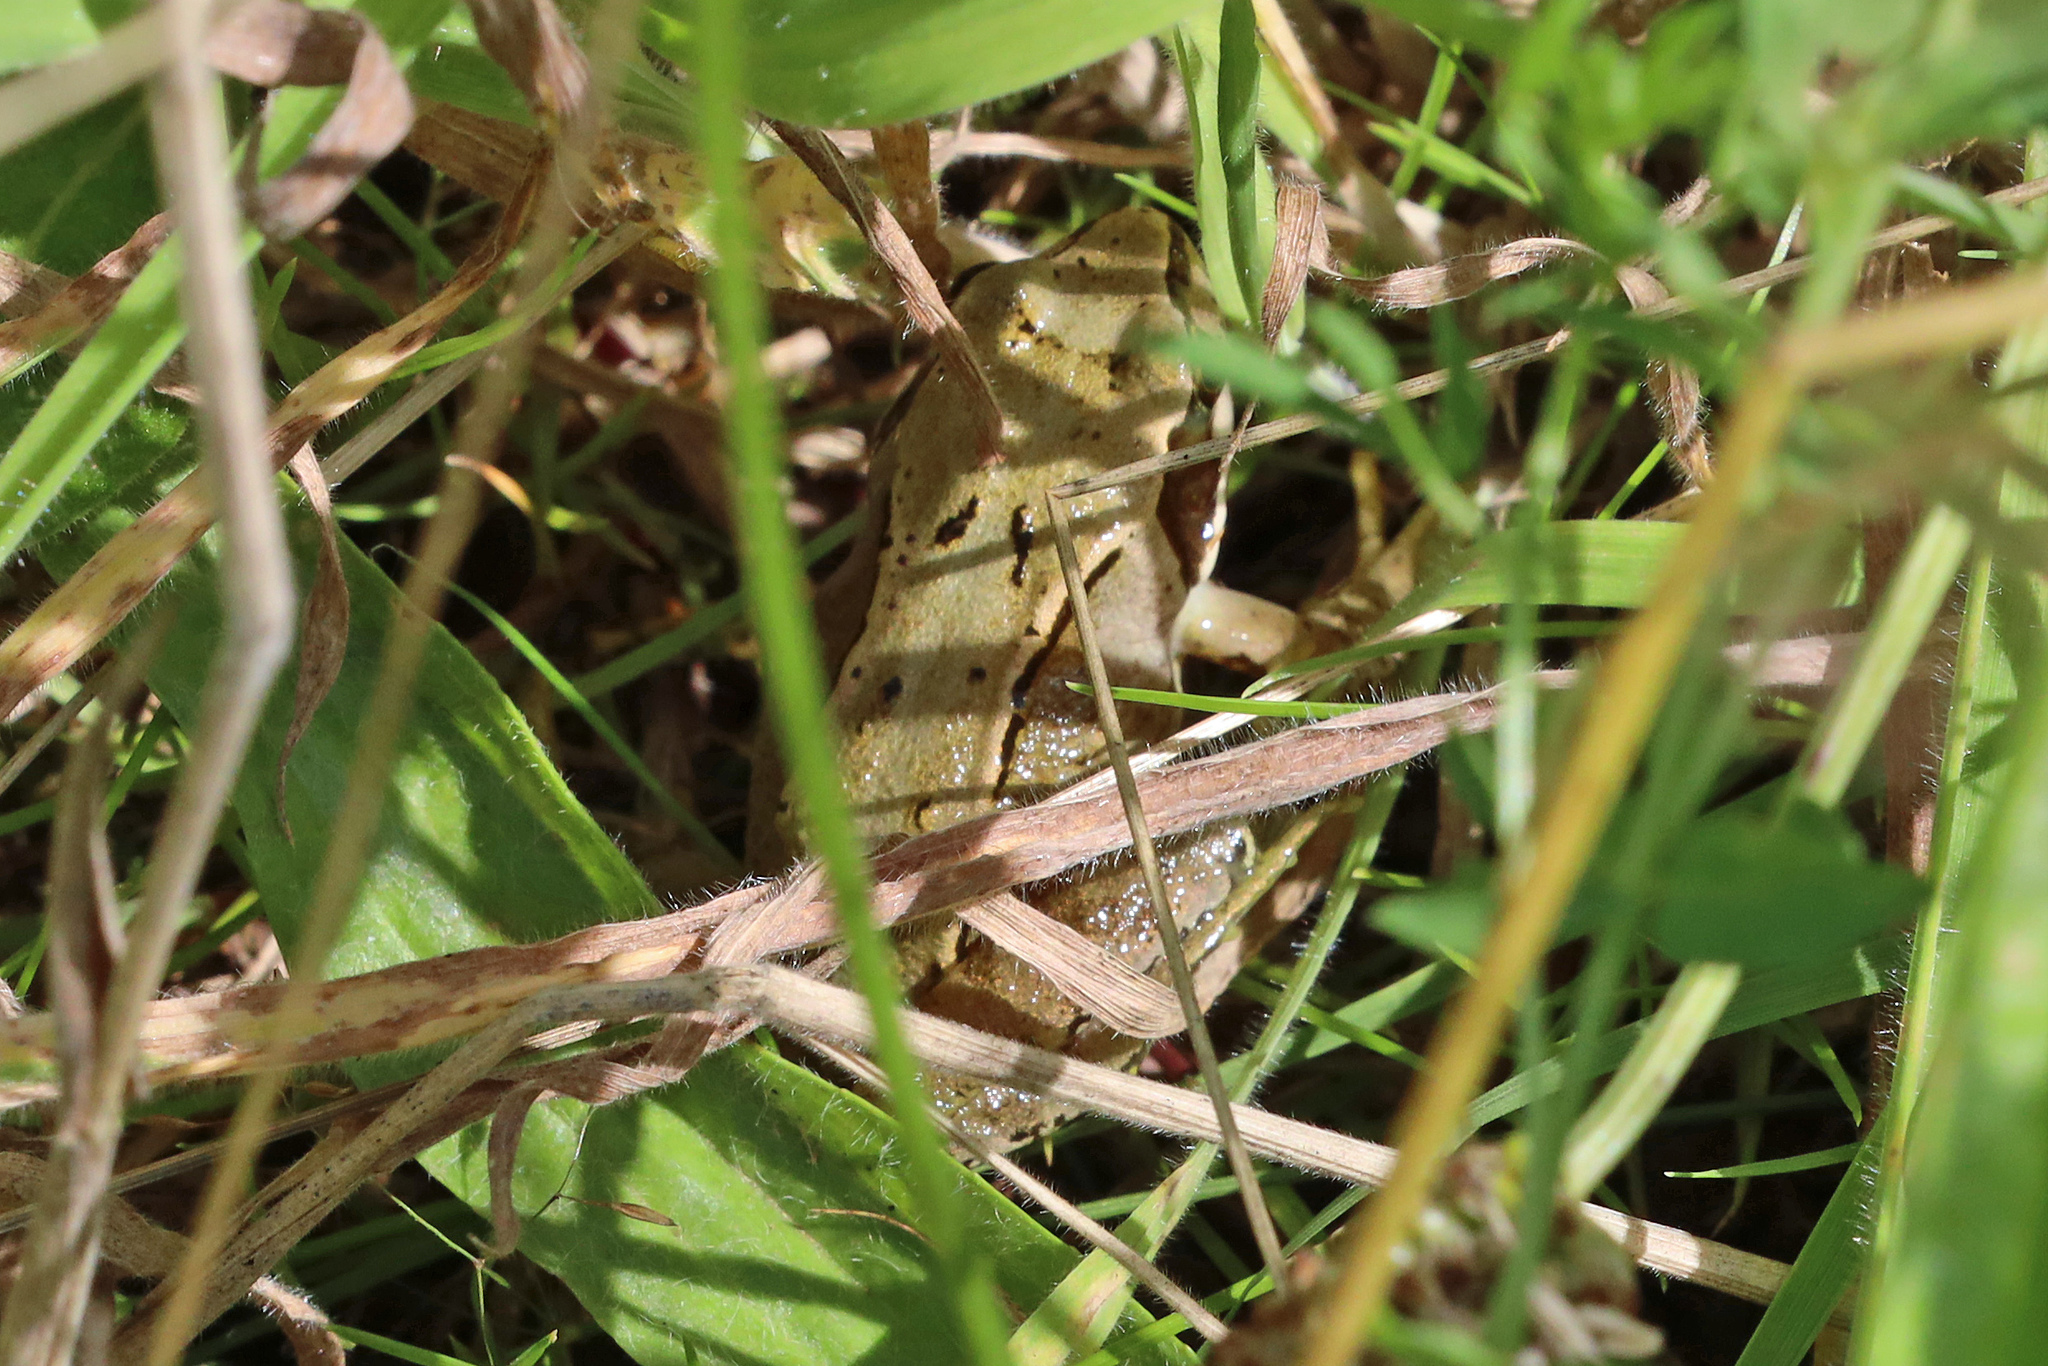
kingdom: Animalia
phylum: Chordata
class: Amphibia
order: Anura
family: Ranidae
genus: Rana
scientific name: Rana temporaria
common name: Common frog
